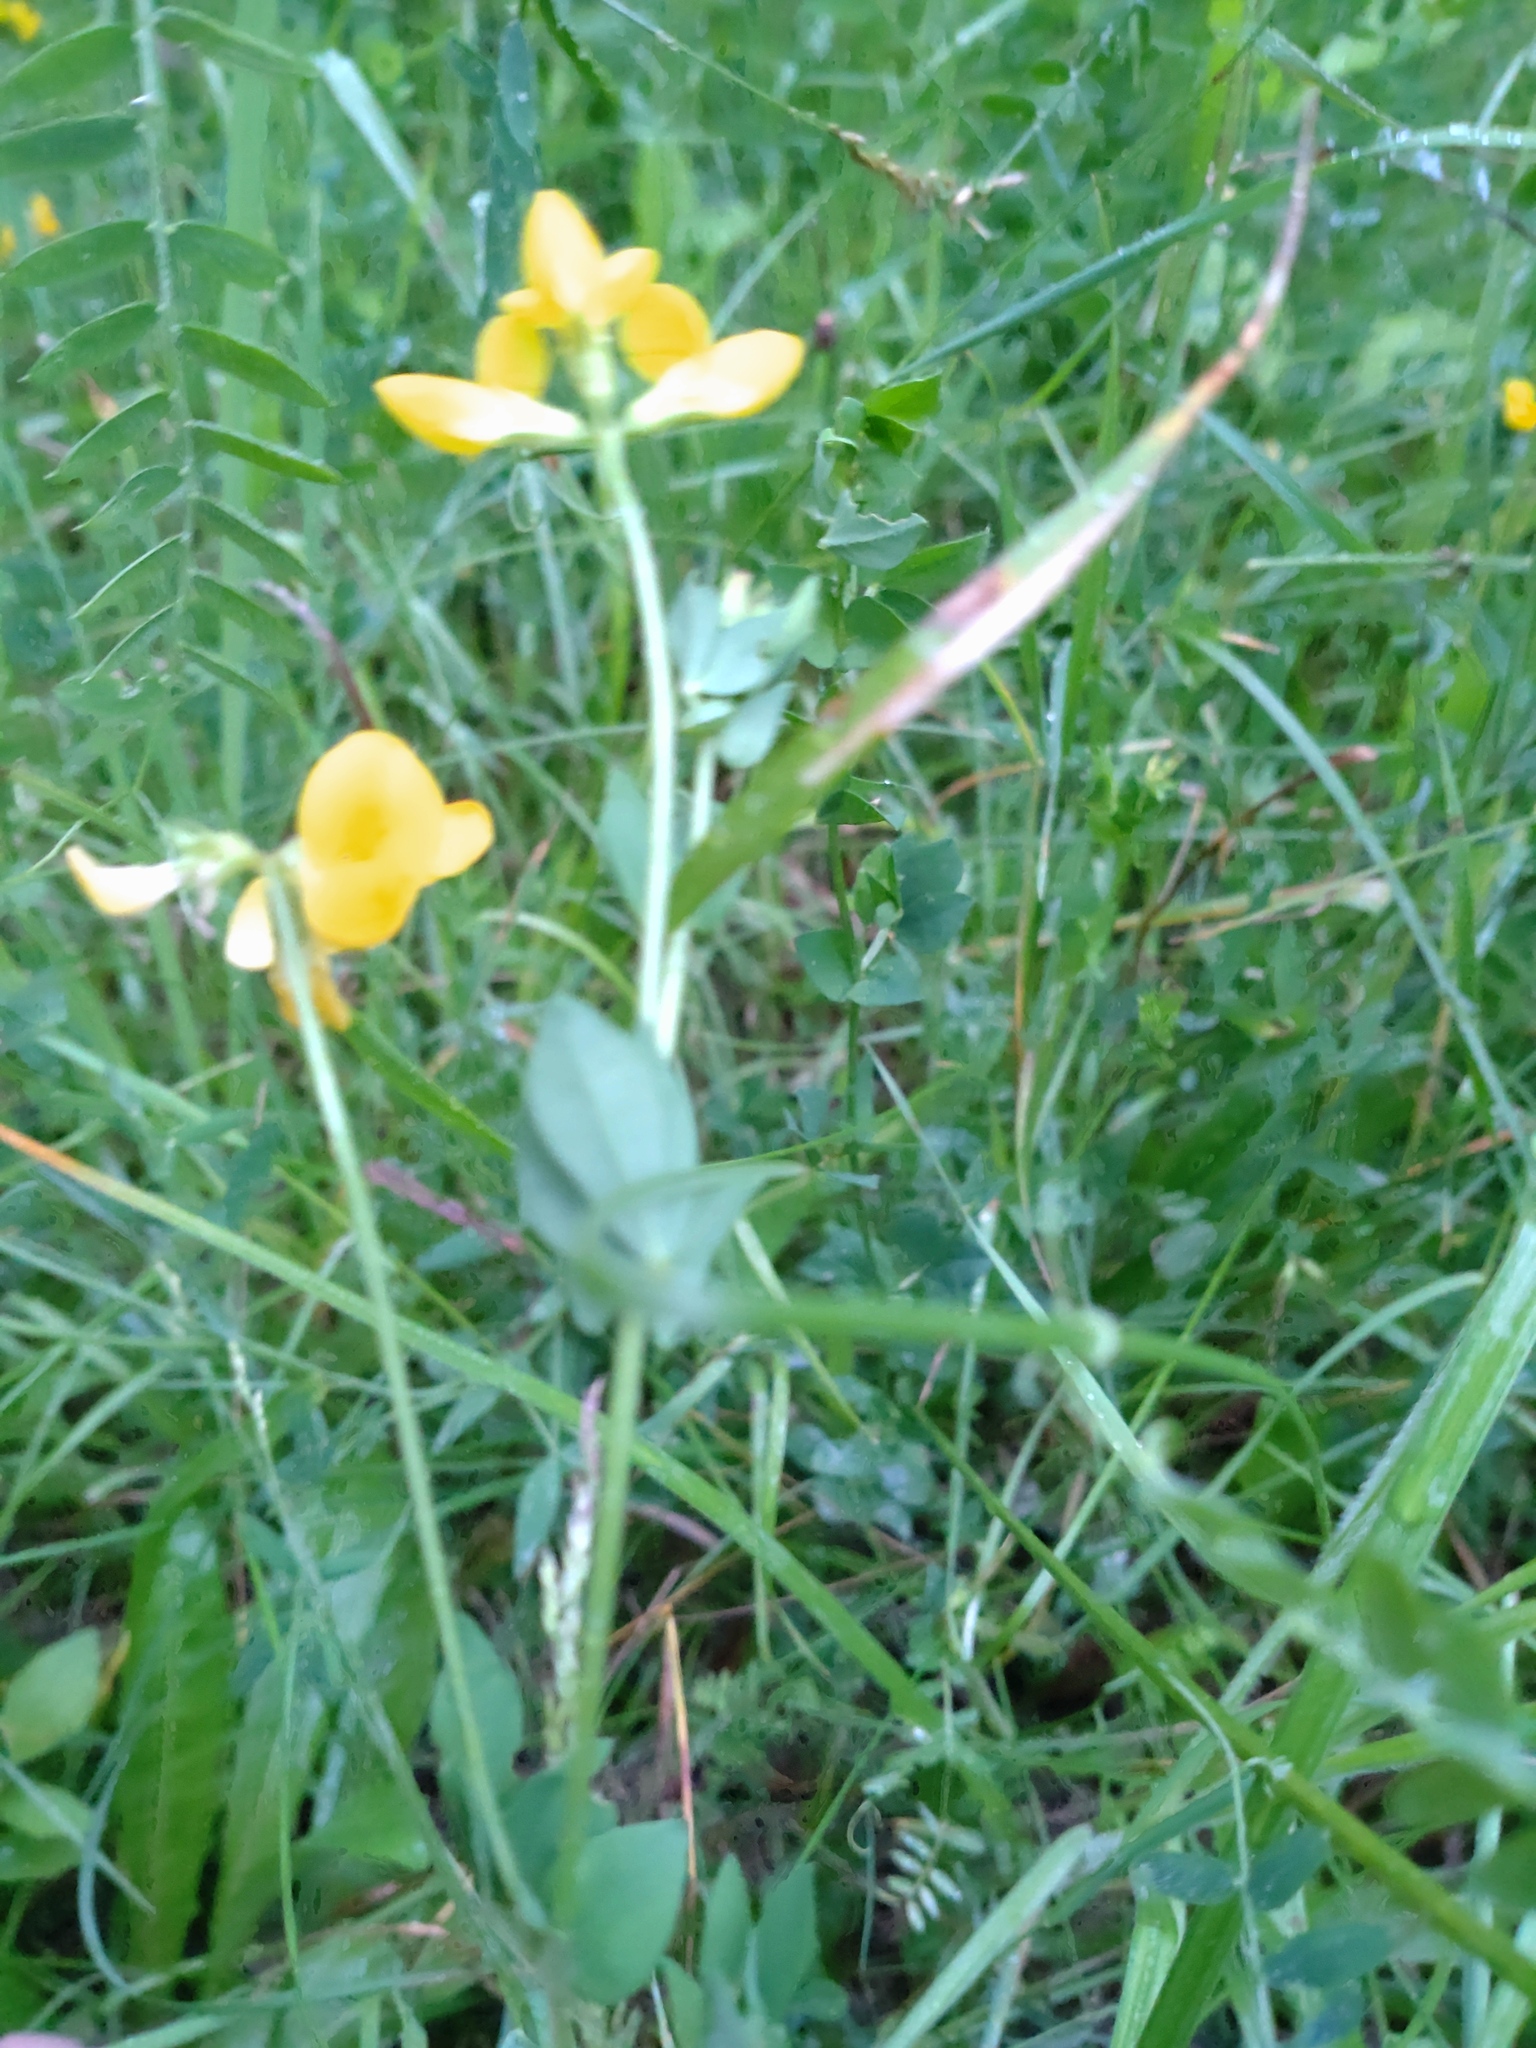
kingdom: Plantae
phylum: Tracheophyta
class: Magnoliopsida
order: Fabales
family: Fabaceae
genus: Lotus
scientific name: Lotus corniculatus
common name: Common bird's-foot-trefoil
